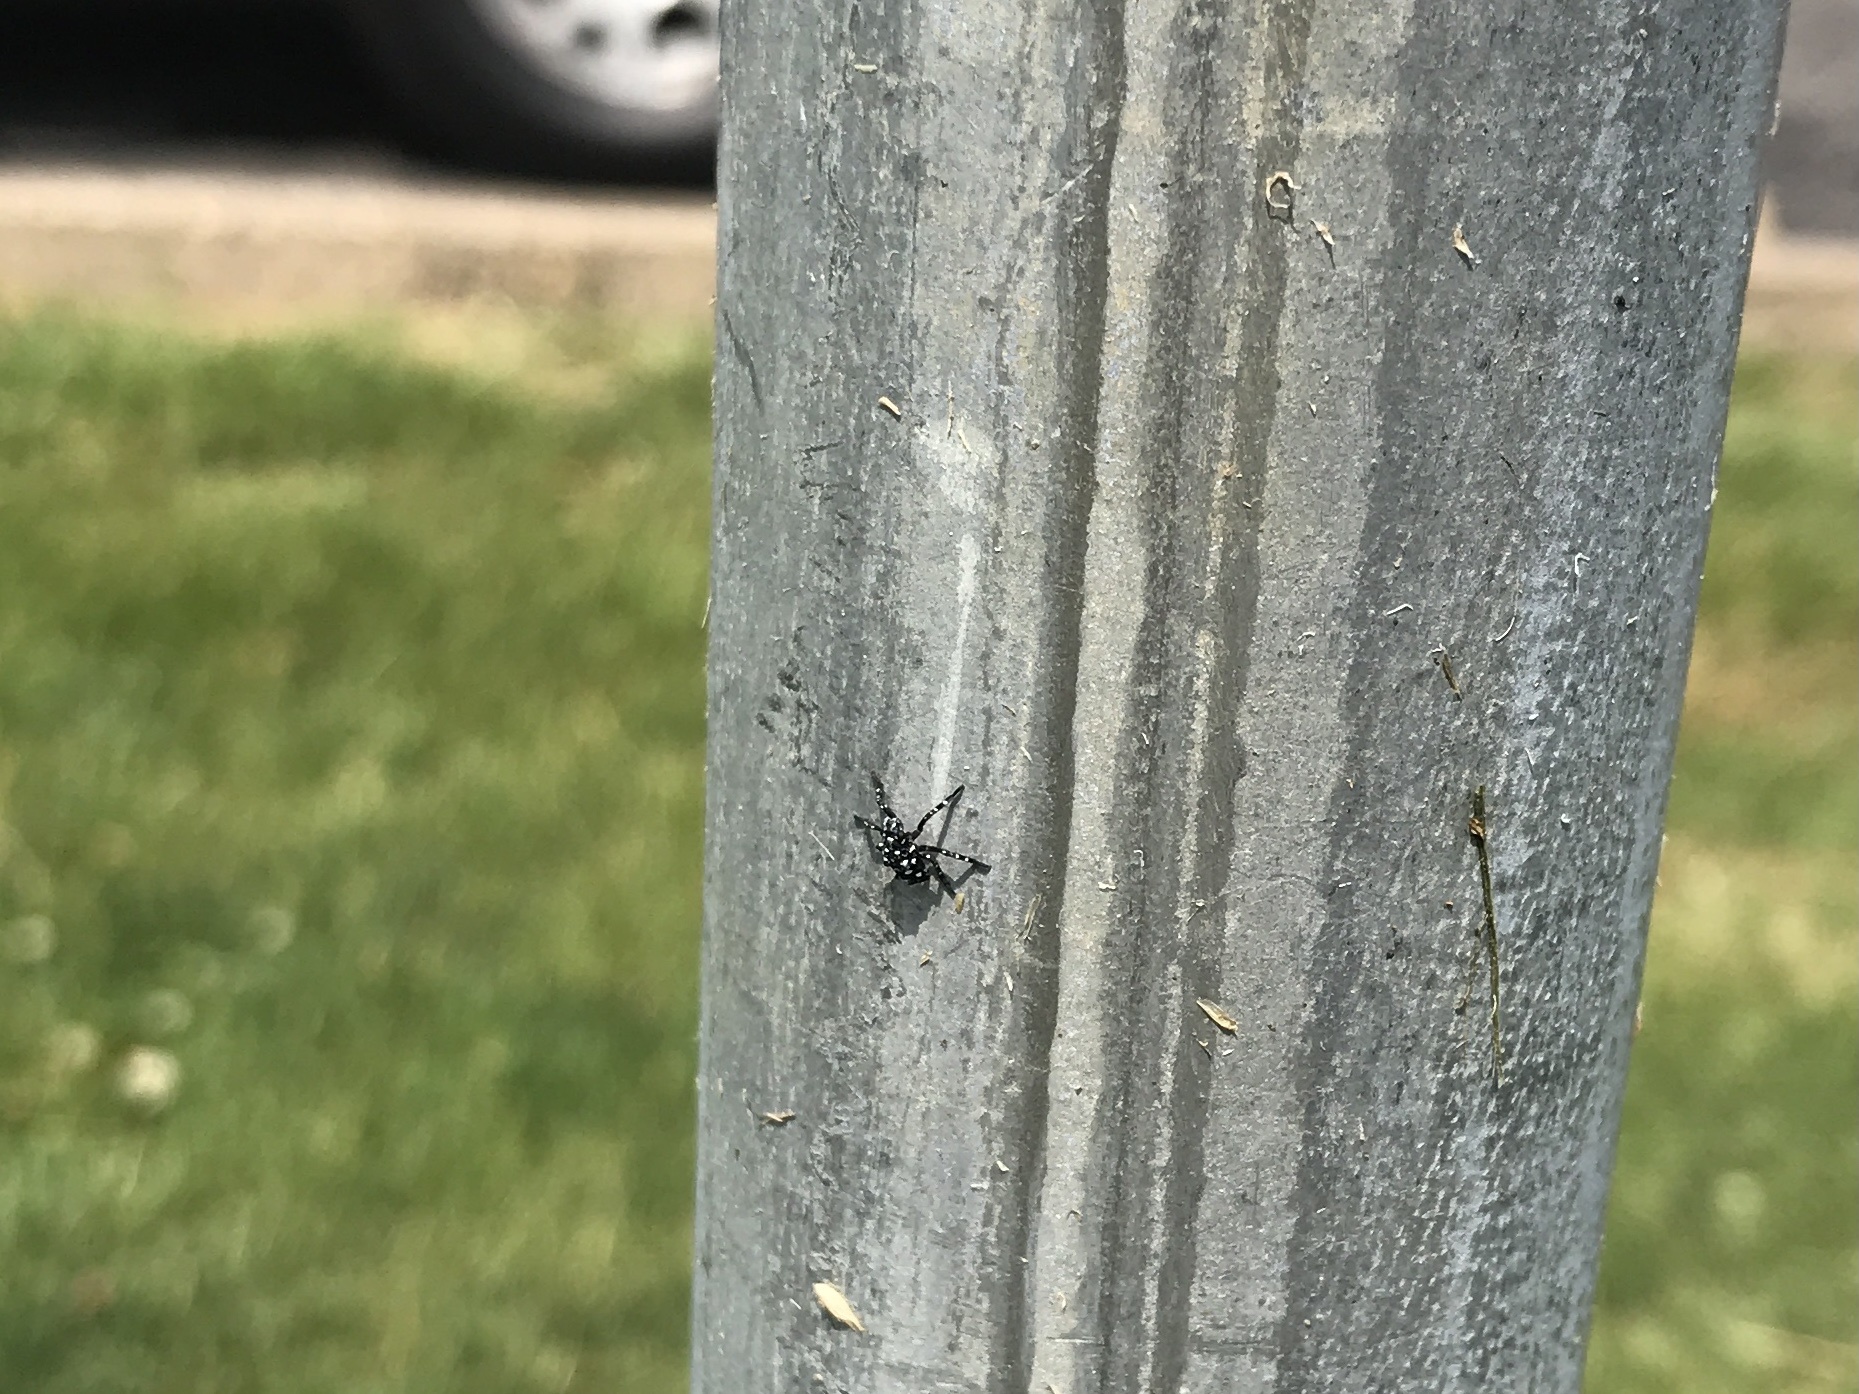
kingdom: Animalia
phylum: Arthropoda
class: Insecta
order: Hemiptera
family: Fulgoridae
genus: Lycorma
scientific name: Lycorma delicatula
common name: Spotted lanternfly
